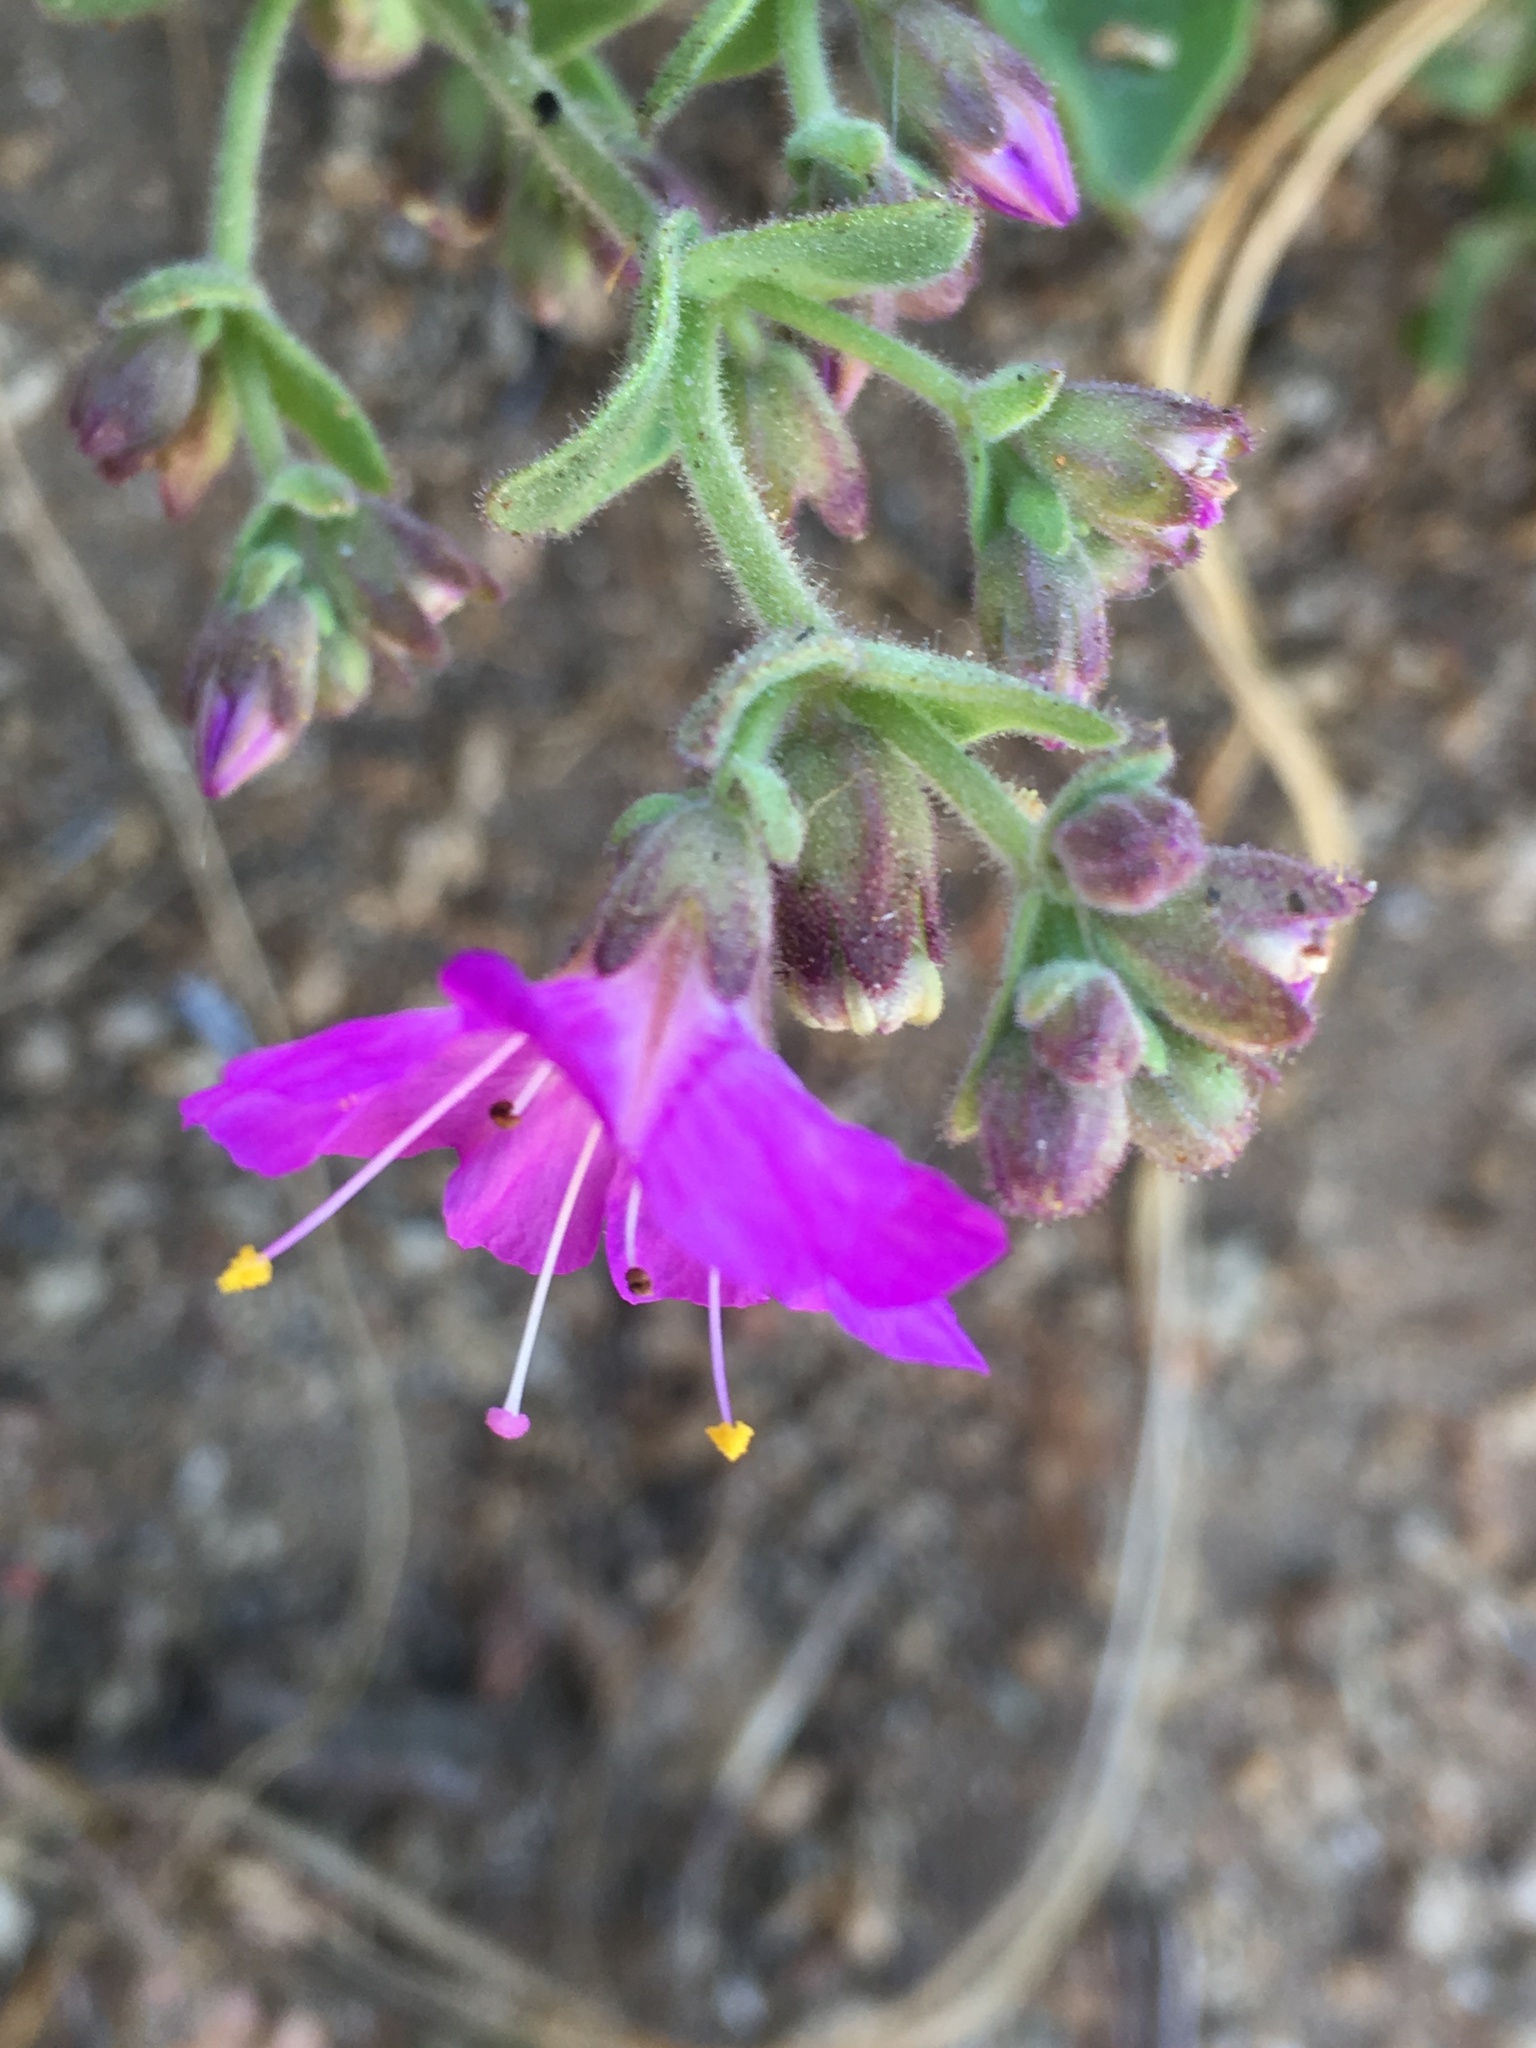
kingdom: Plantae
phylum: Tracheophyta
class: Magnoliopsida
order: Caryophyllales
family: Nyctaginaceae
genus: Mirabilis
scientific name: Mirabilis laevis
